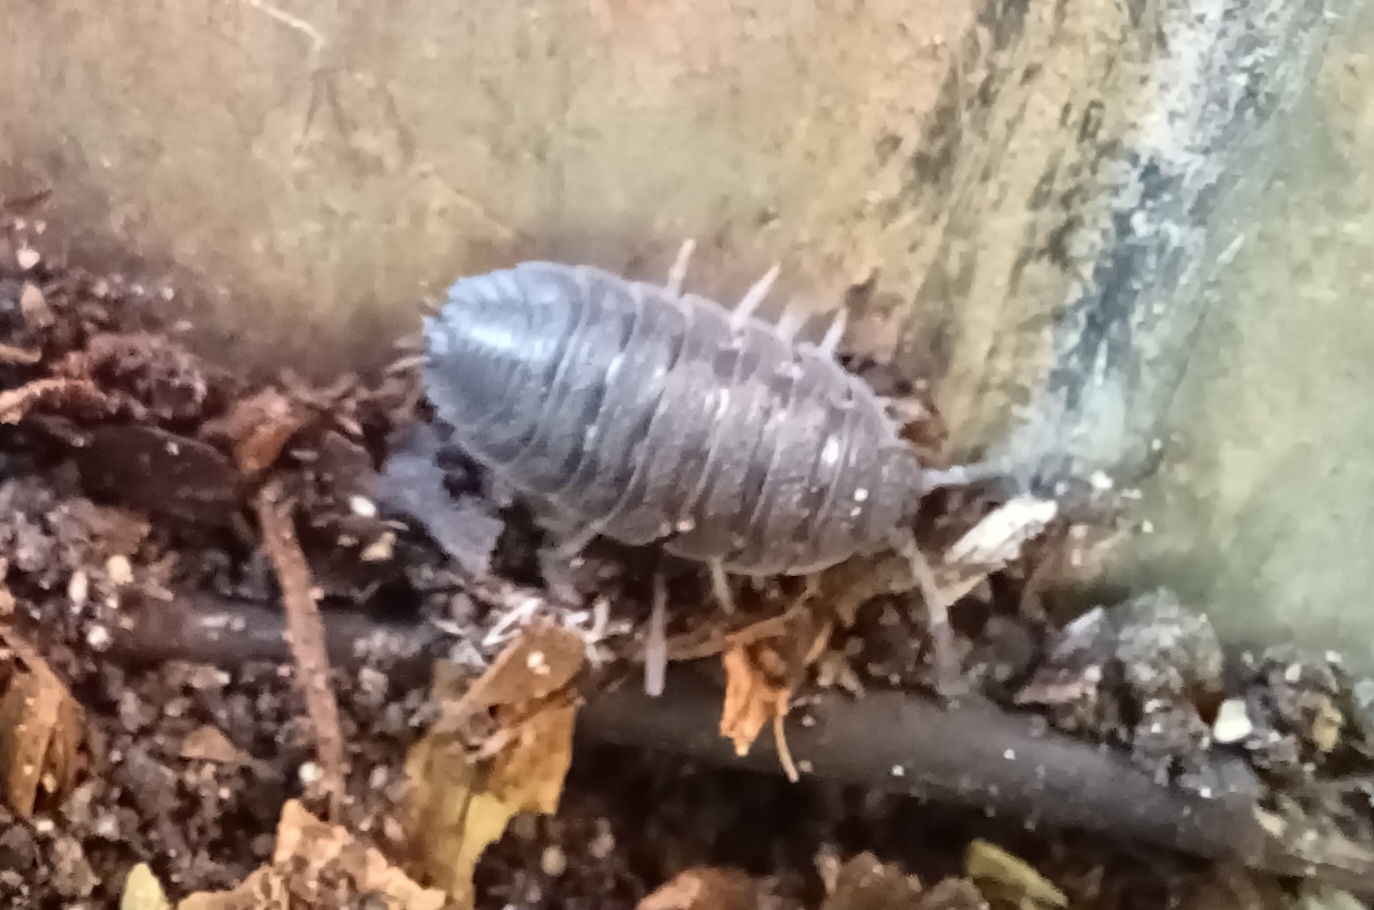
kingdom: Animalia
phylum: Arthropoda
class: Malacostraca
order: Isopoda
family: Porcellionidae
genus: Porcellio
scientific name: Porcellio scaber
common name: Common rough woodlouse
